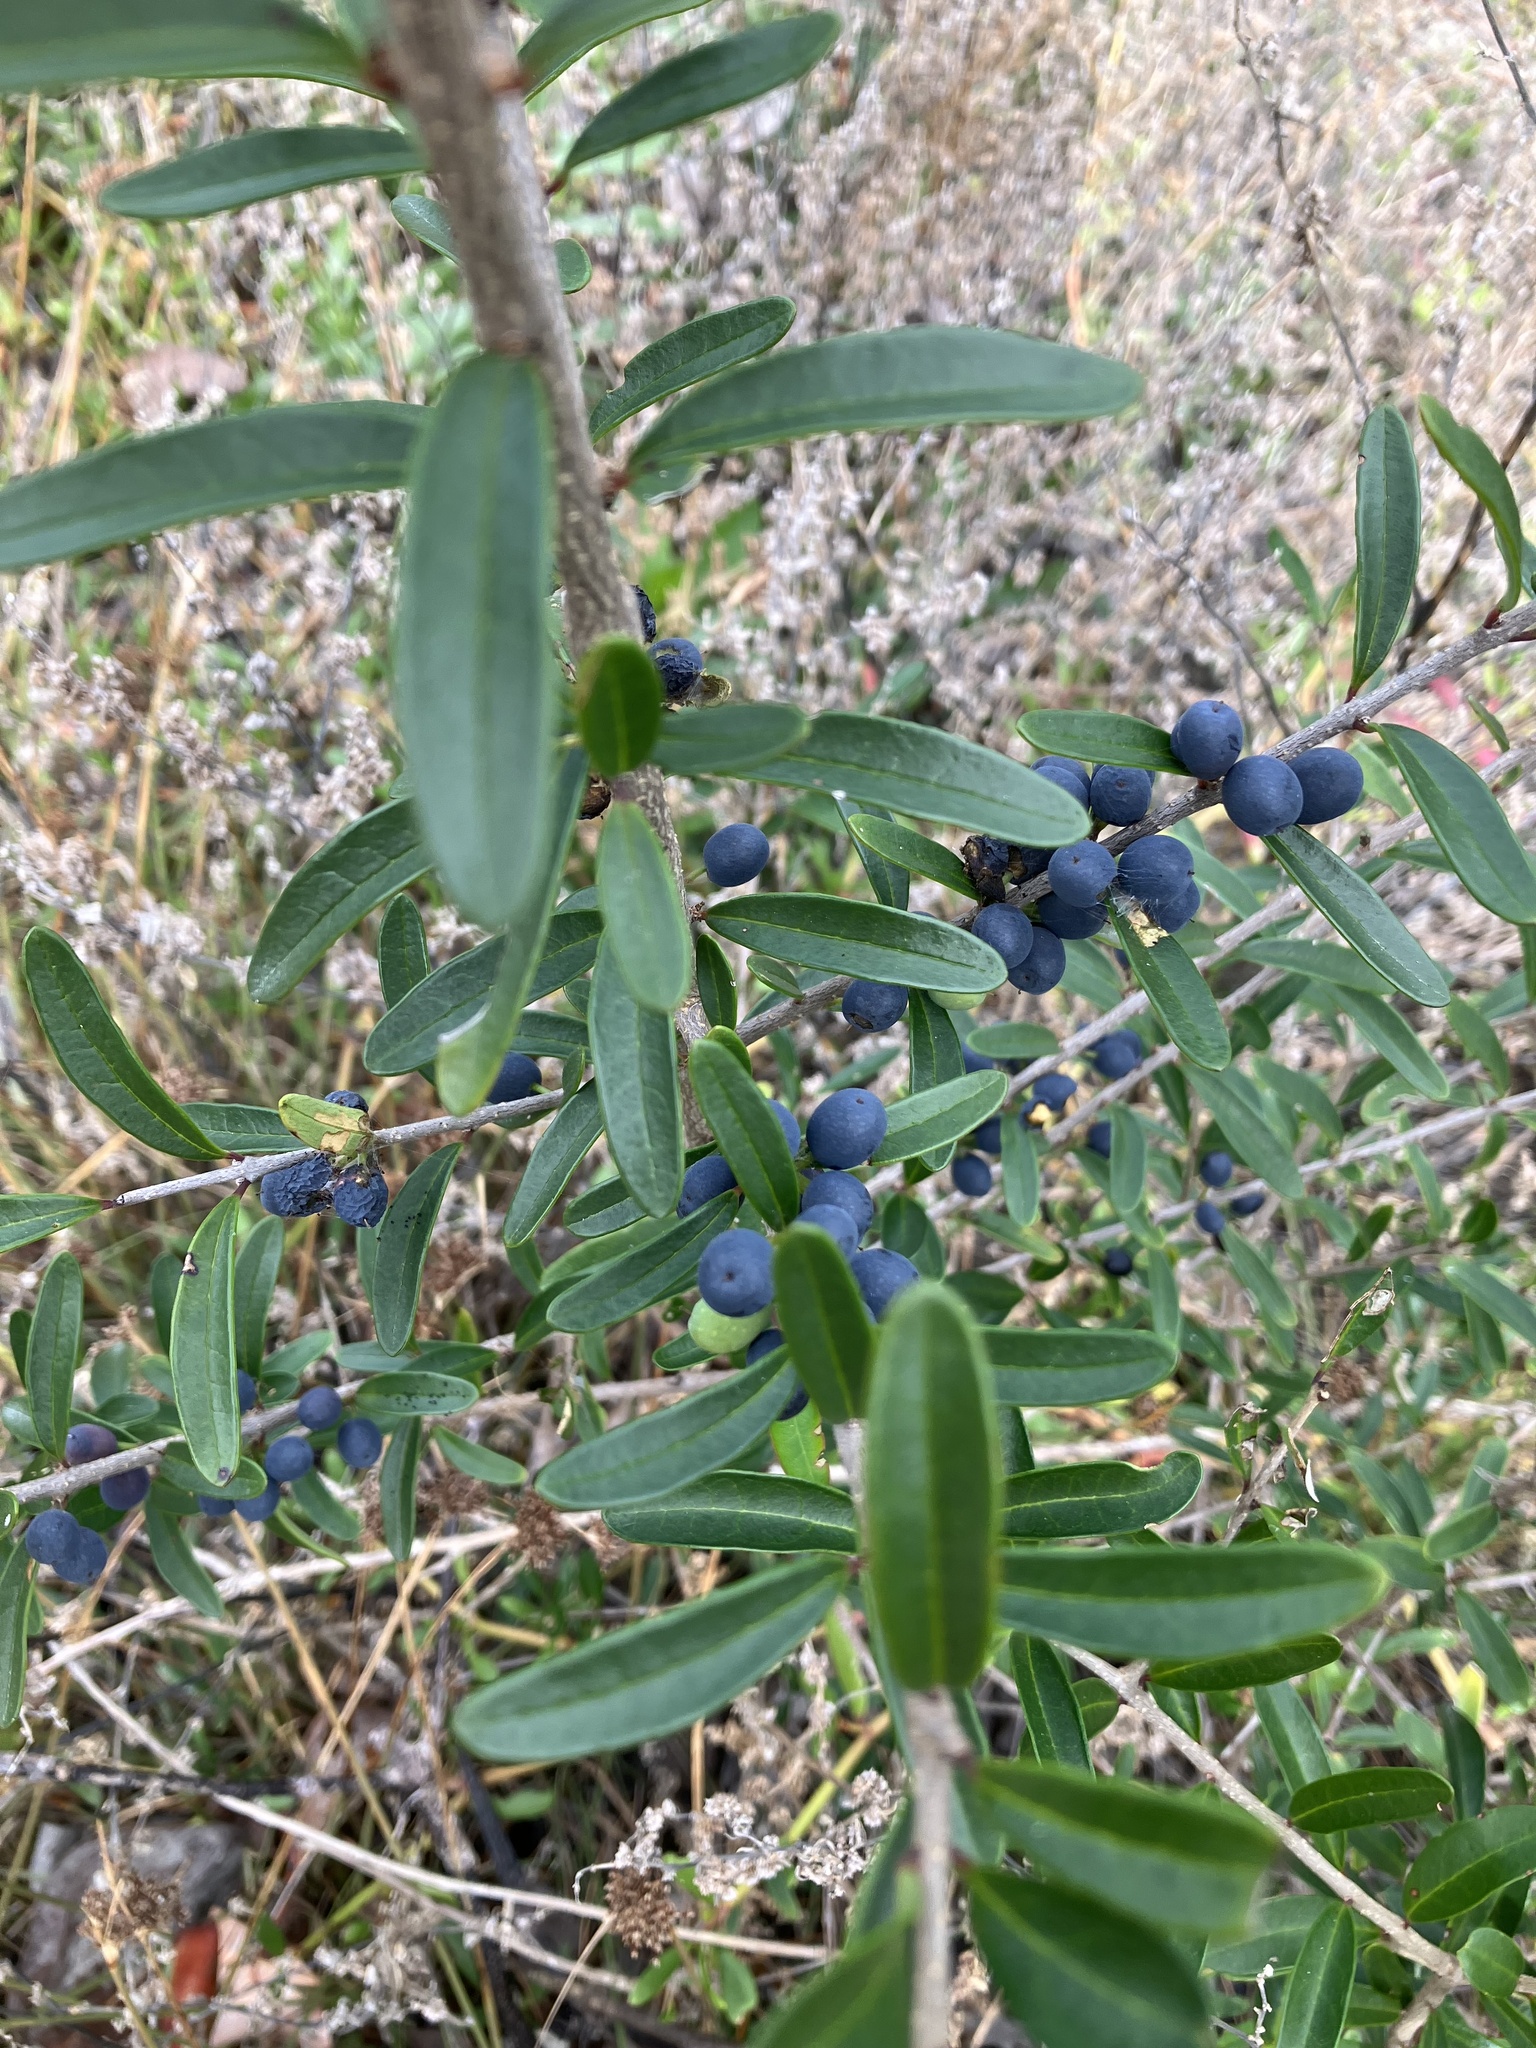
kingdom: Plantae
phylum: Tracheophyta
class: Magnoliopsida
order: Lamiales
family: Oleaceae
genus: Forestiera
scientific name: Forestiera segregata
